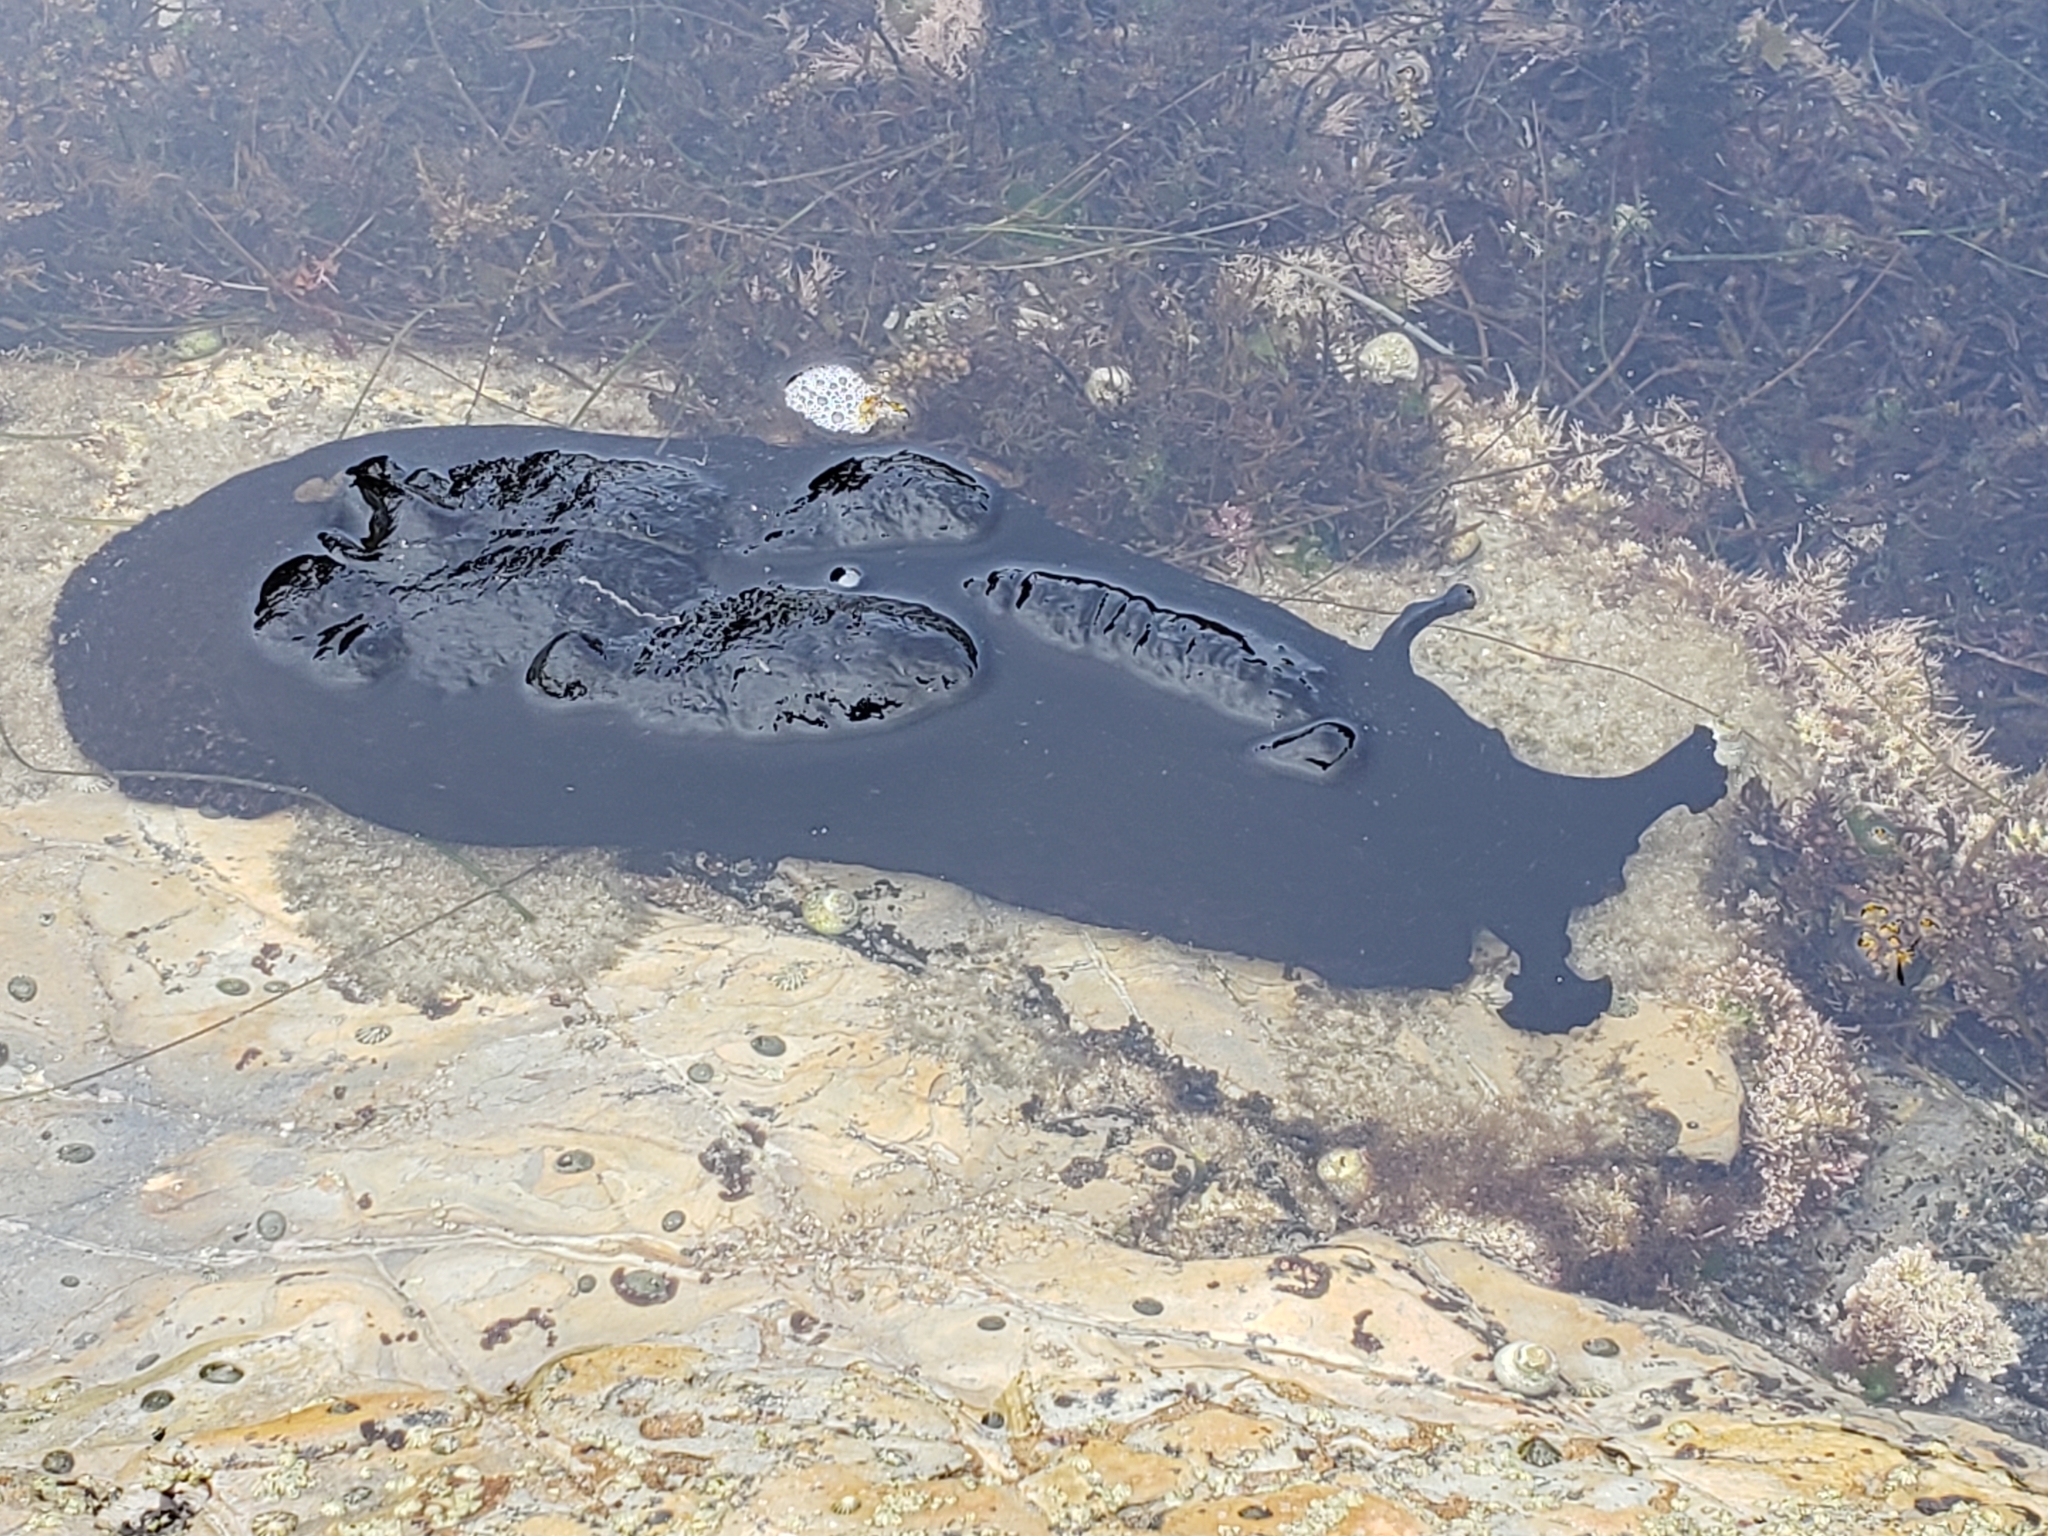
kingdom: Animalia
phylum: Mollusca
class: Gastropoda
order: Aplysiida
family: Aplysiidae
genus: Aplysia
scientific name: Aplysia vaccaria
